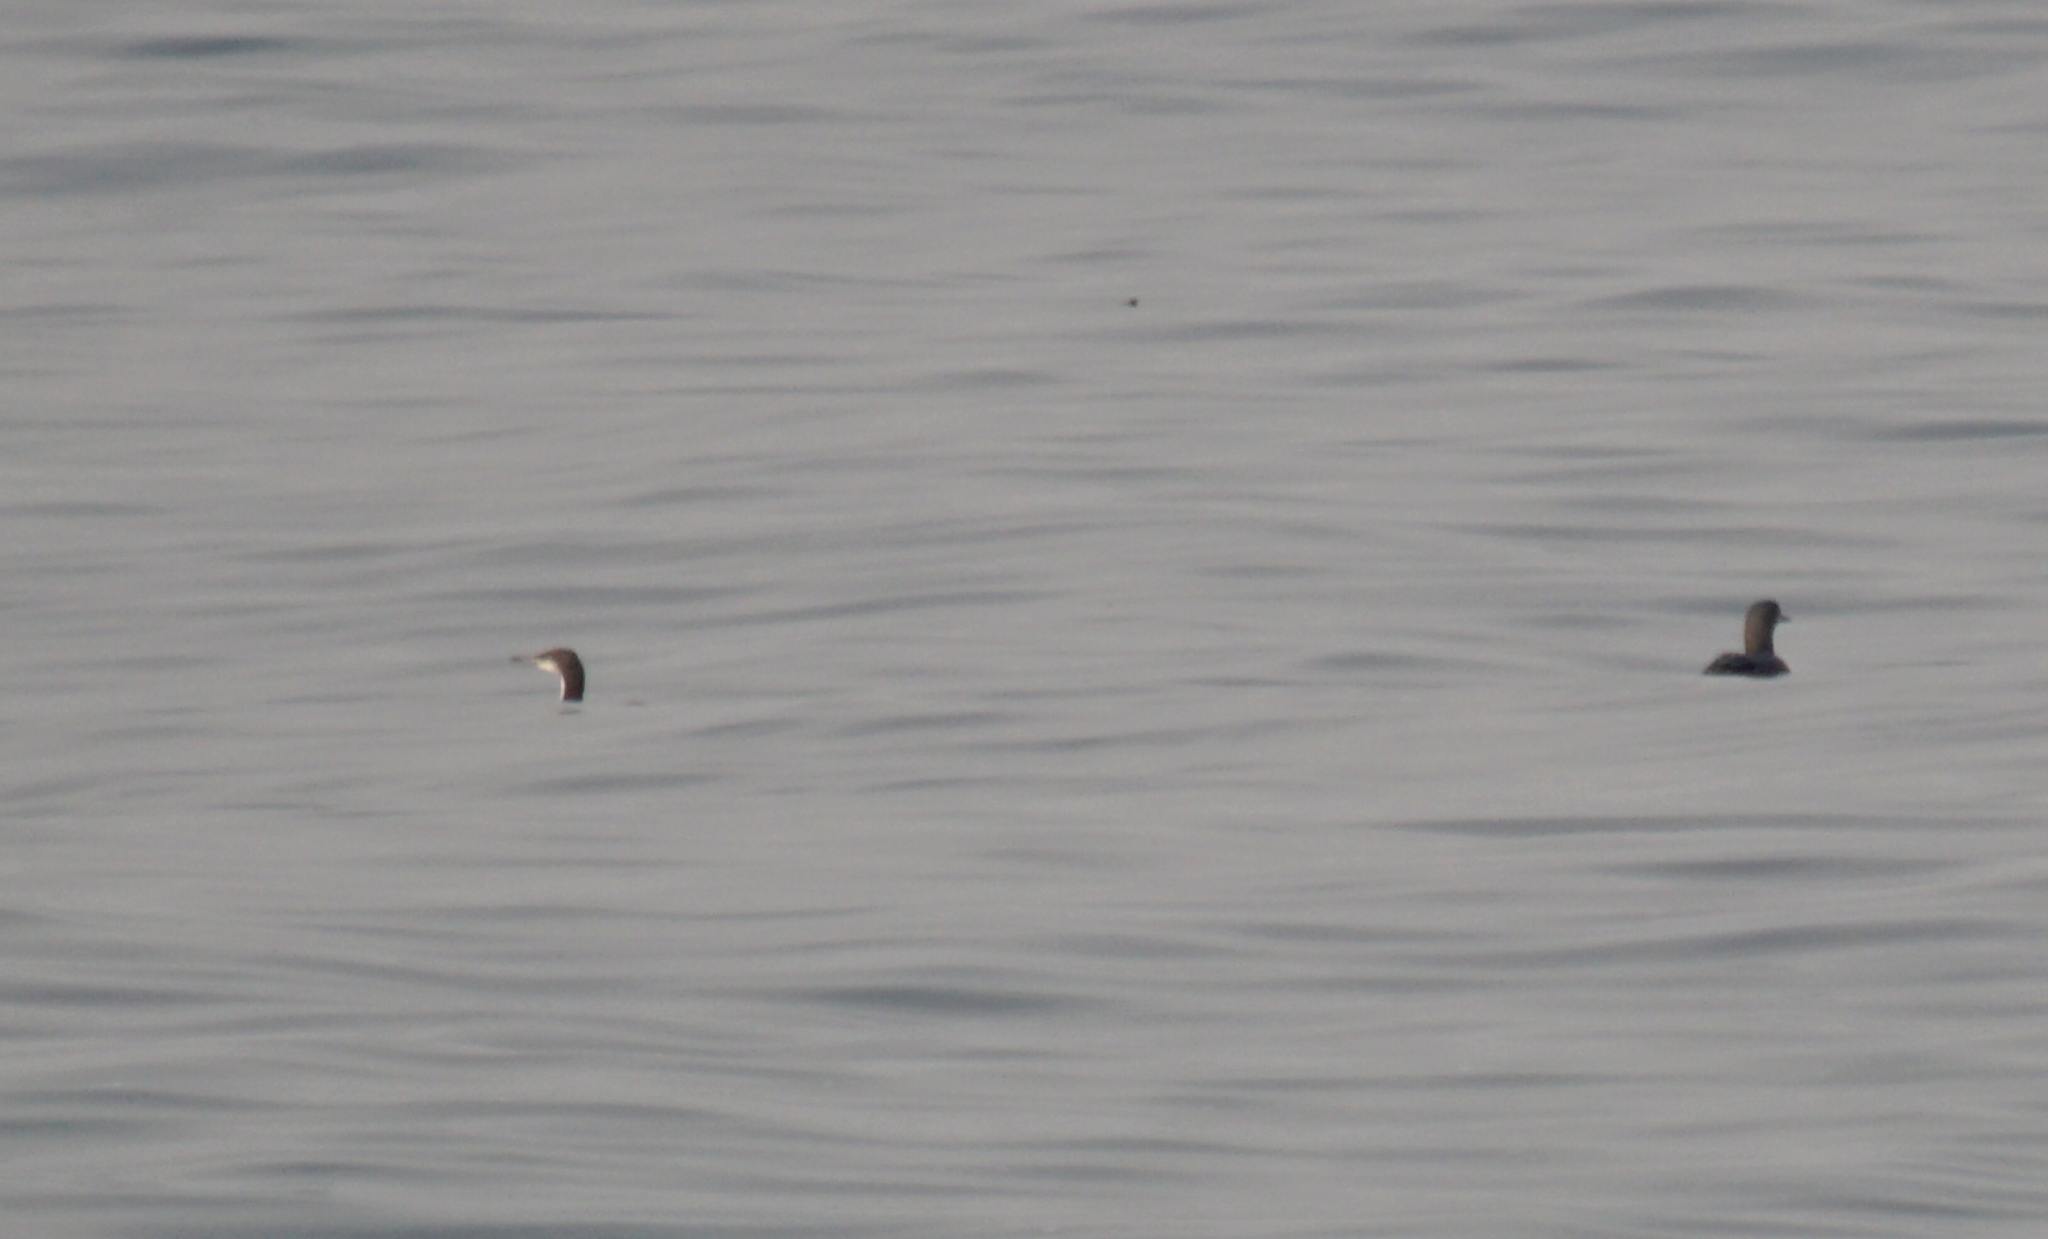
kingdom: Animalia
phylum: Chordata
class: Aves
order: Gaviiformes
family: Gaviidae
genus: Gavia
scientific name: Gavia pacifica
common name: Pacific loon
